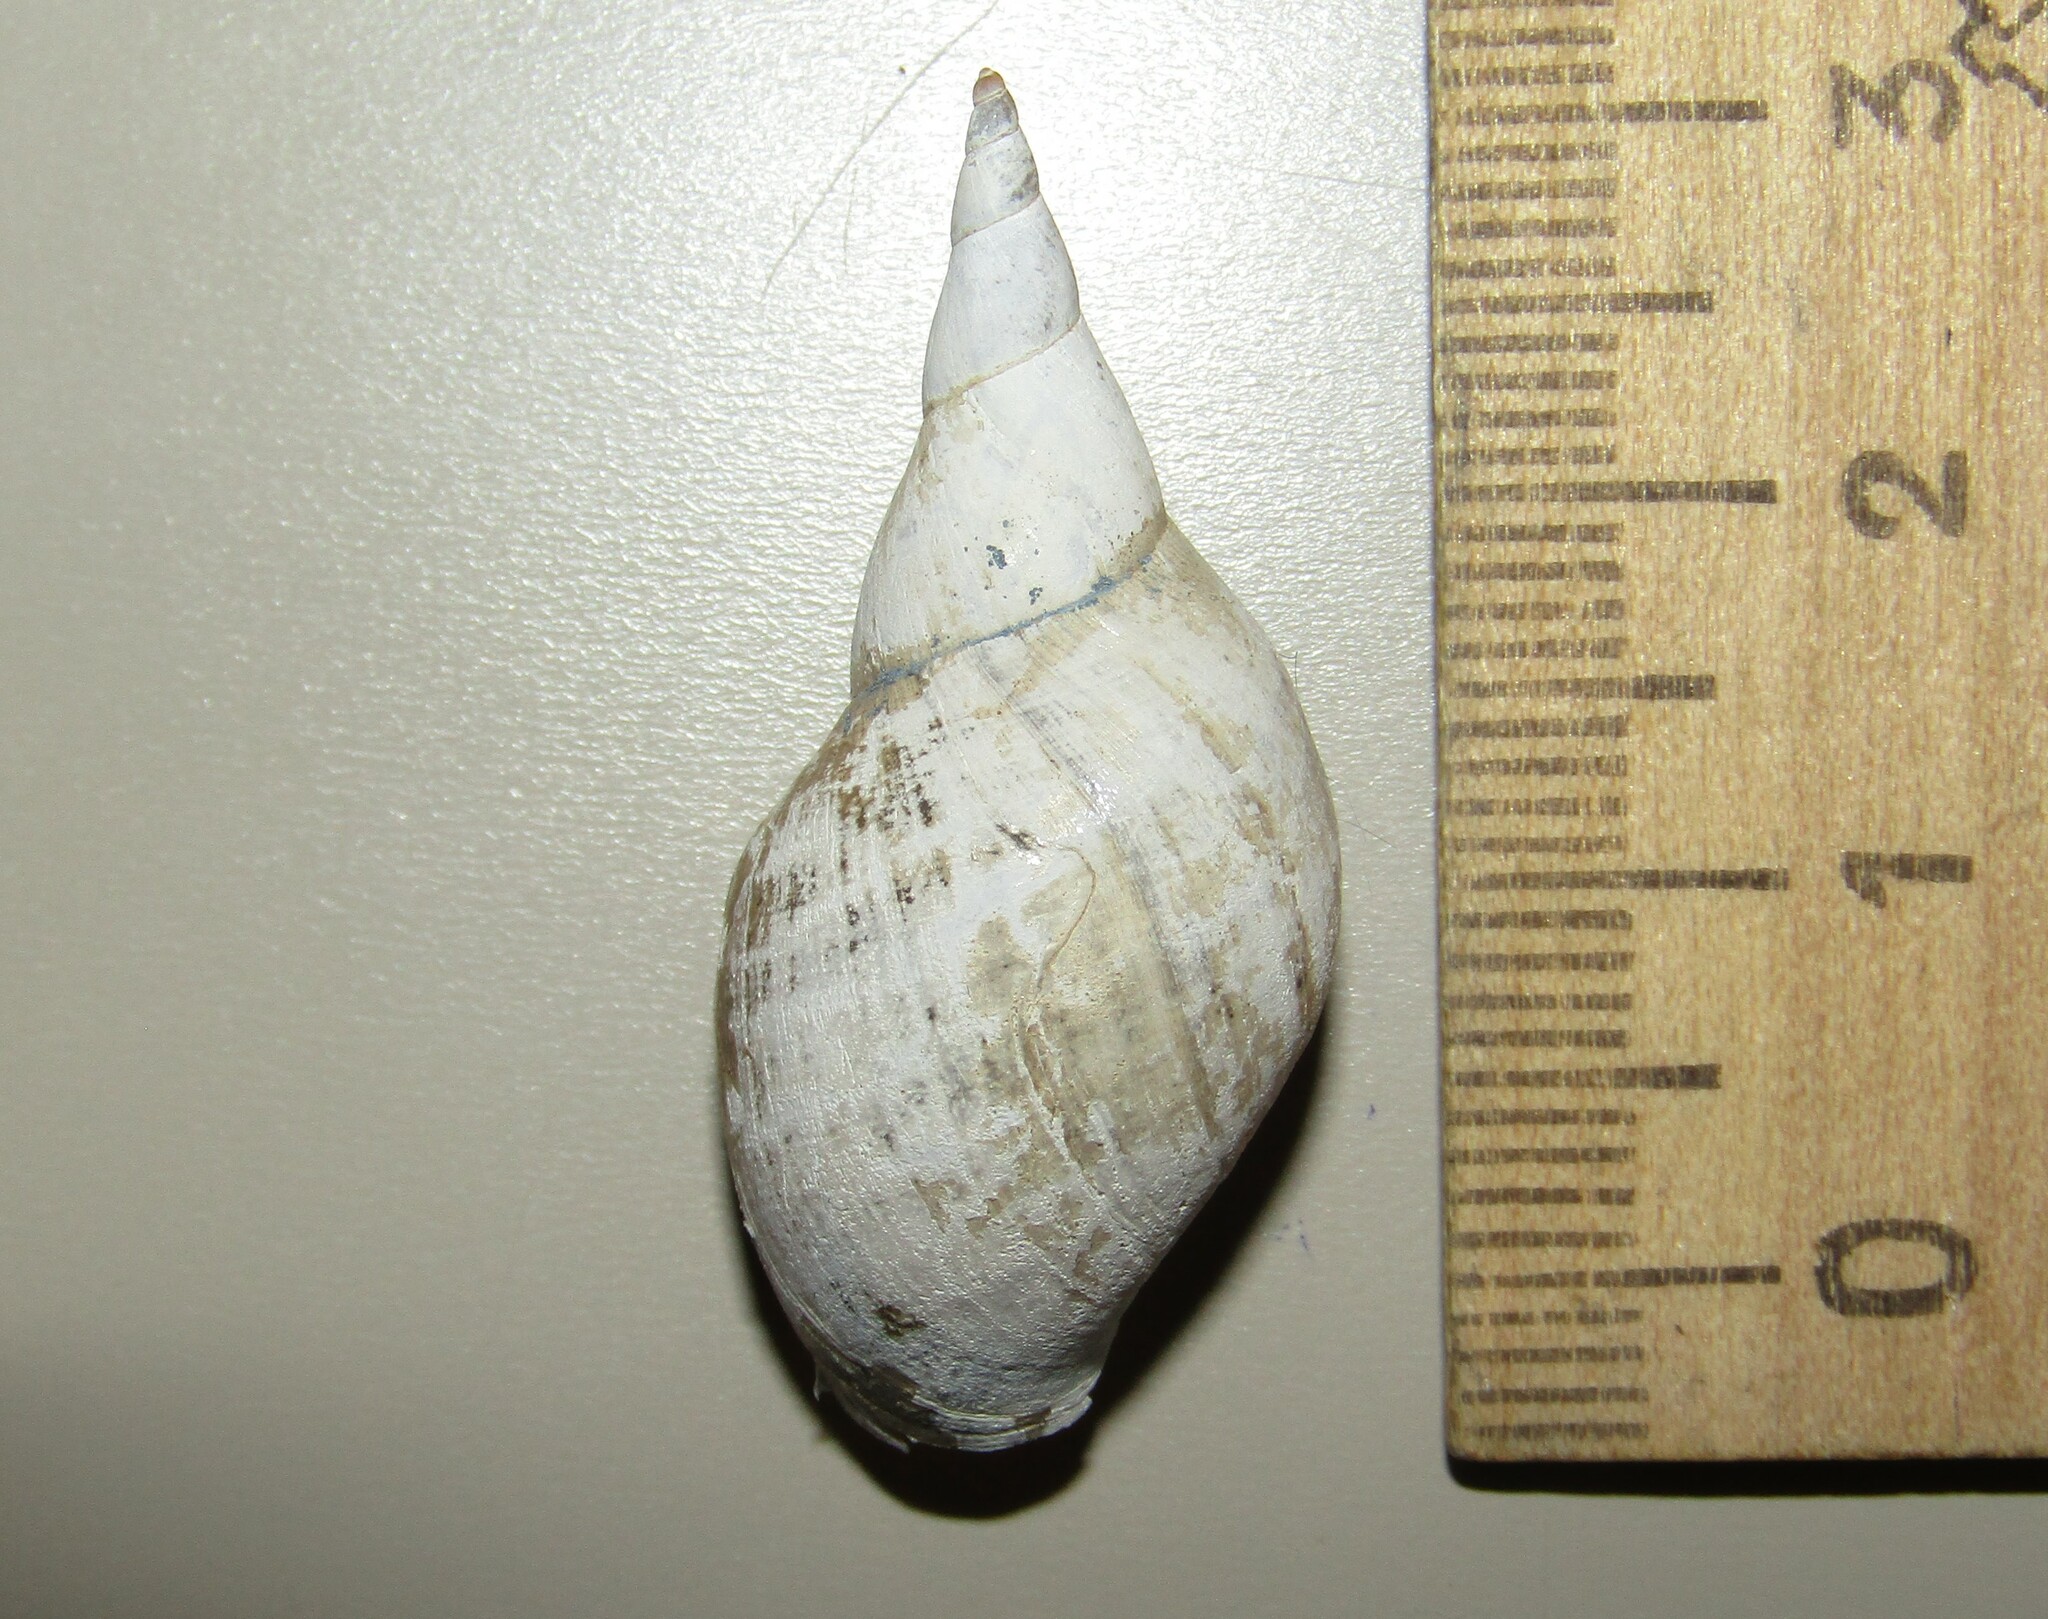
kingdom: Animalia
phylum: Mollusca
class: Gastropoda
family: Lymnaeidae
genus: Lymnaea
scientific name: Lymnaea stagnalis
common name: Great pond snail
